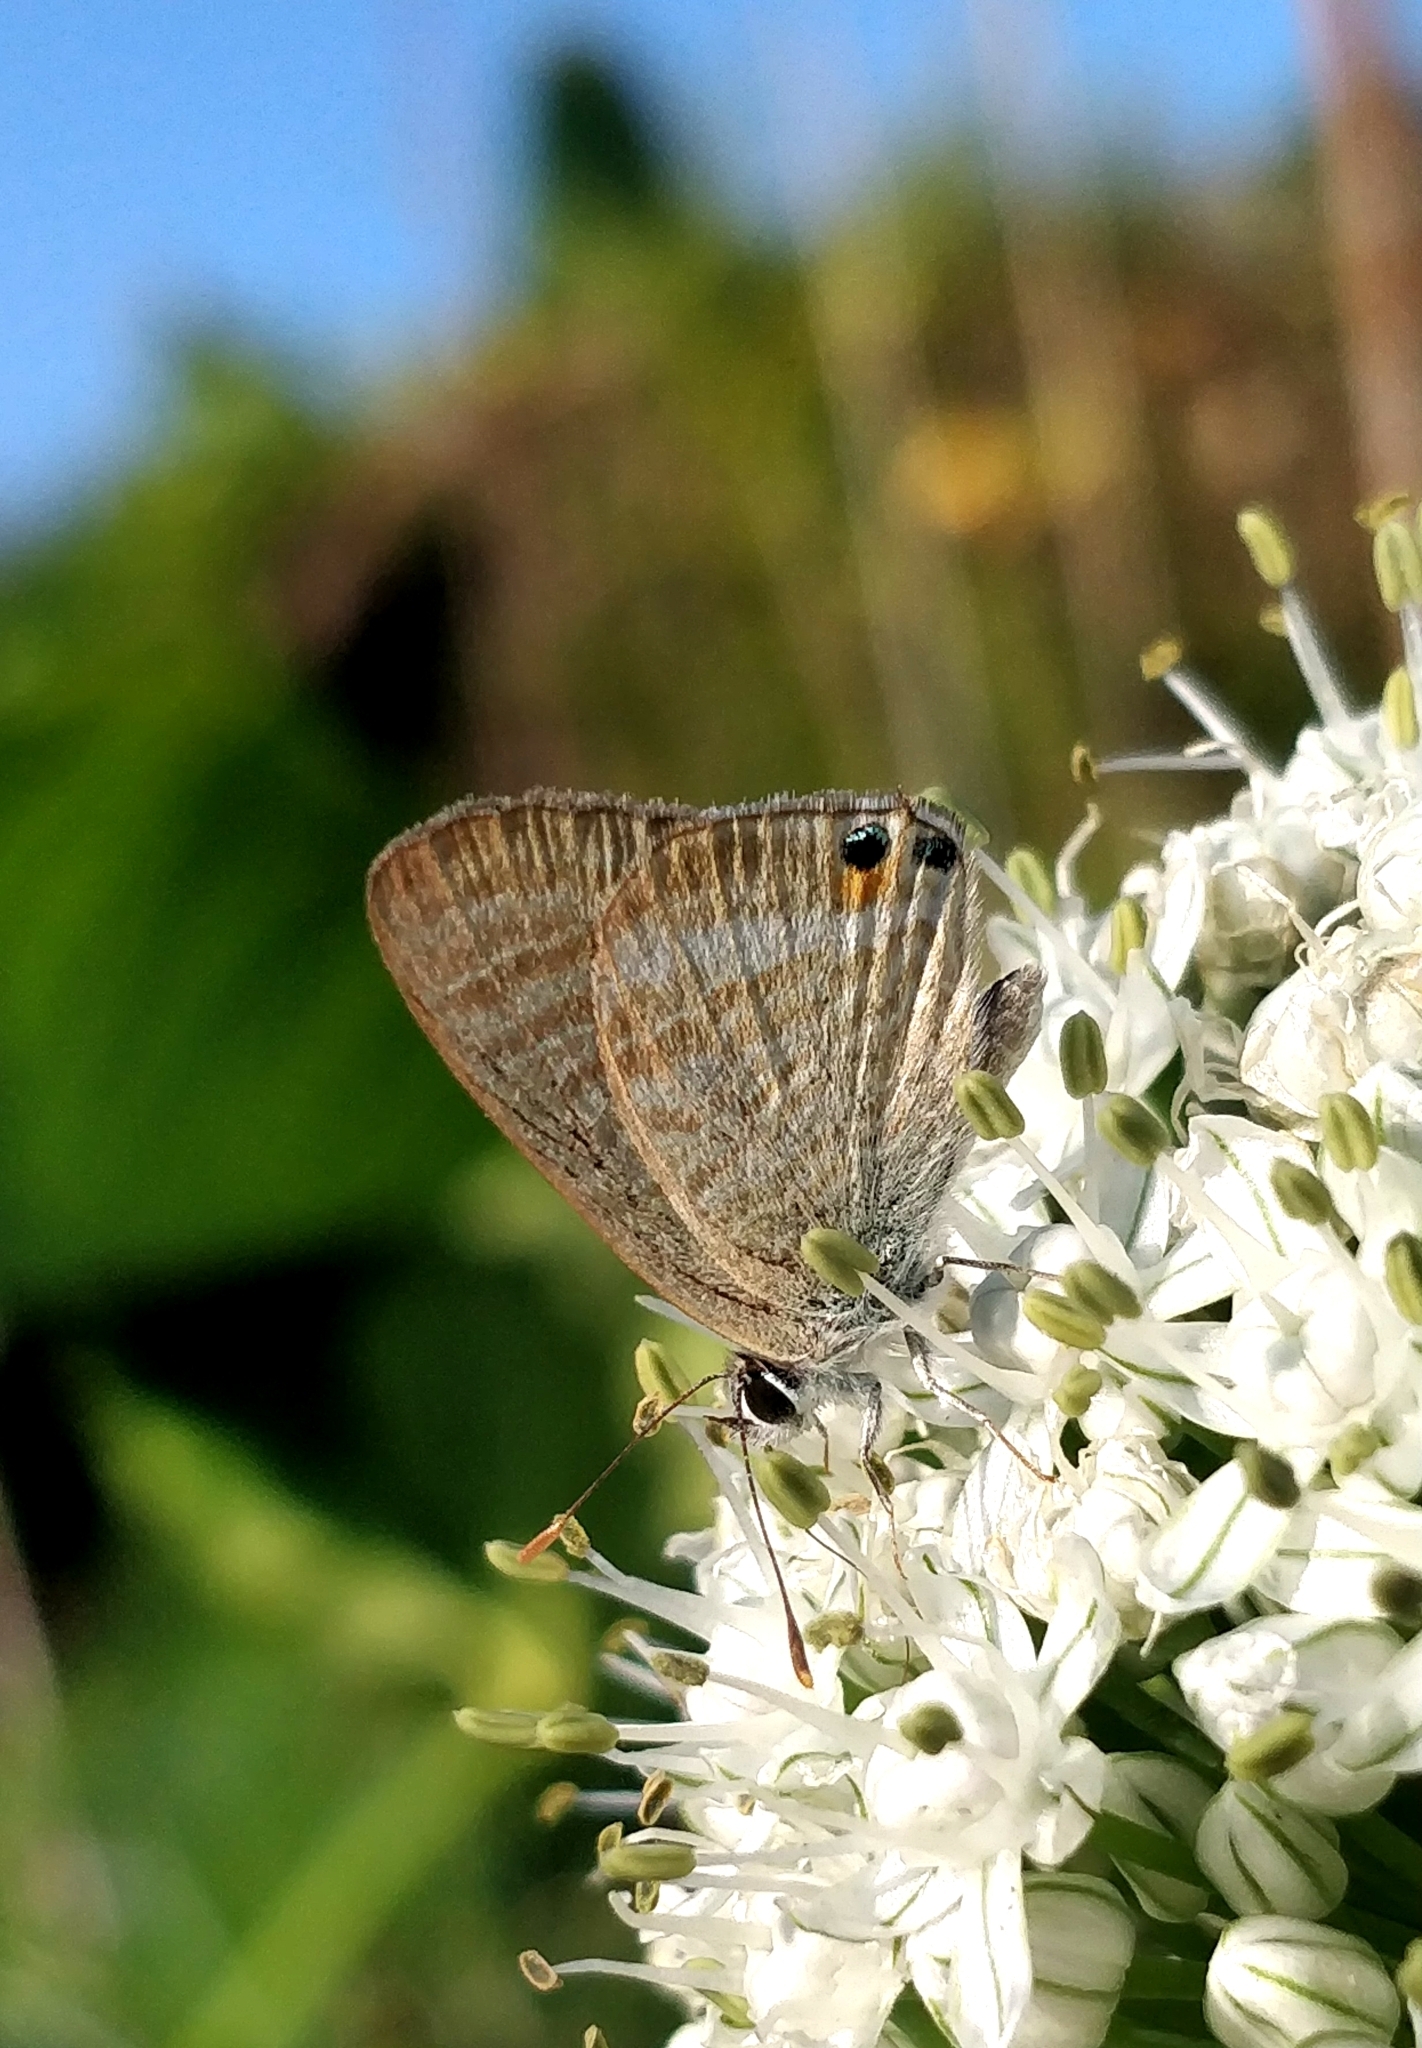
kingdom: Animalia
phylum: Arthropoda
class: Insecta
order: Lepidoptera
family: Lycaenidae
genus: Lampides
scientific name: Lampides boeticus
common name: Long-tailed blue
